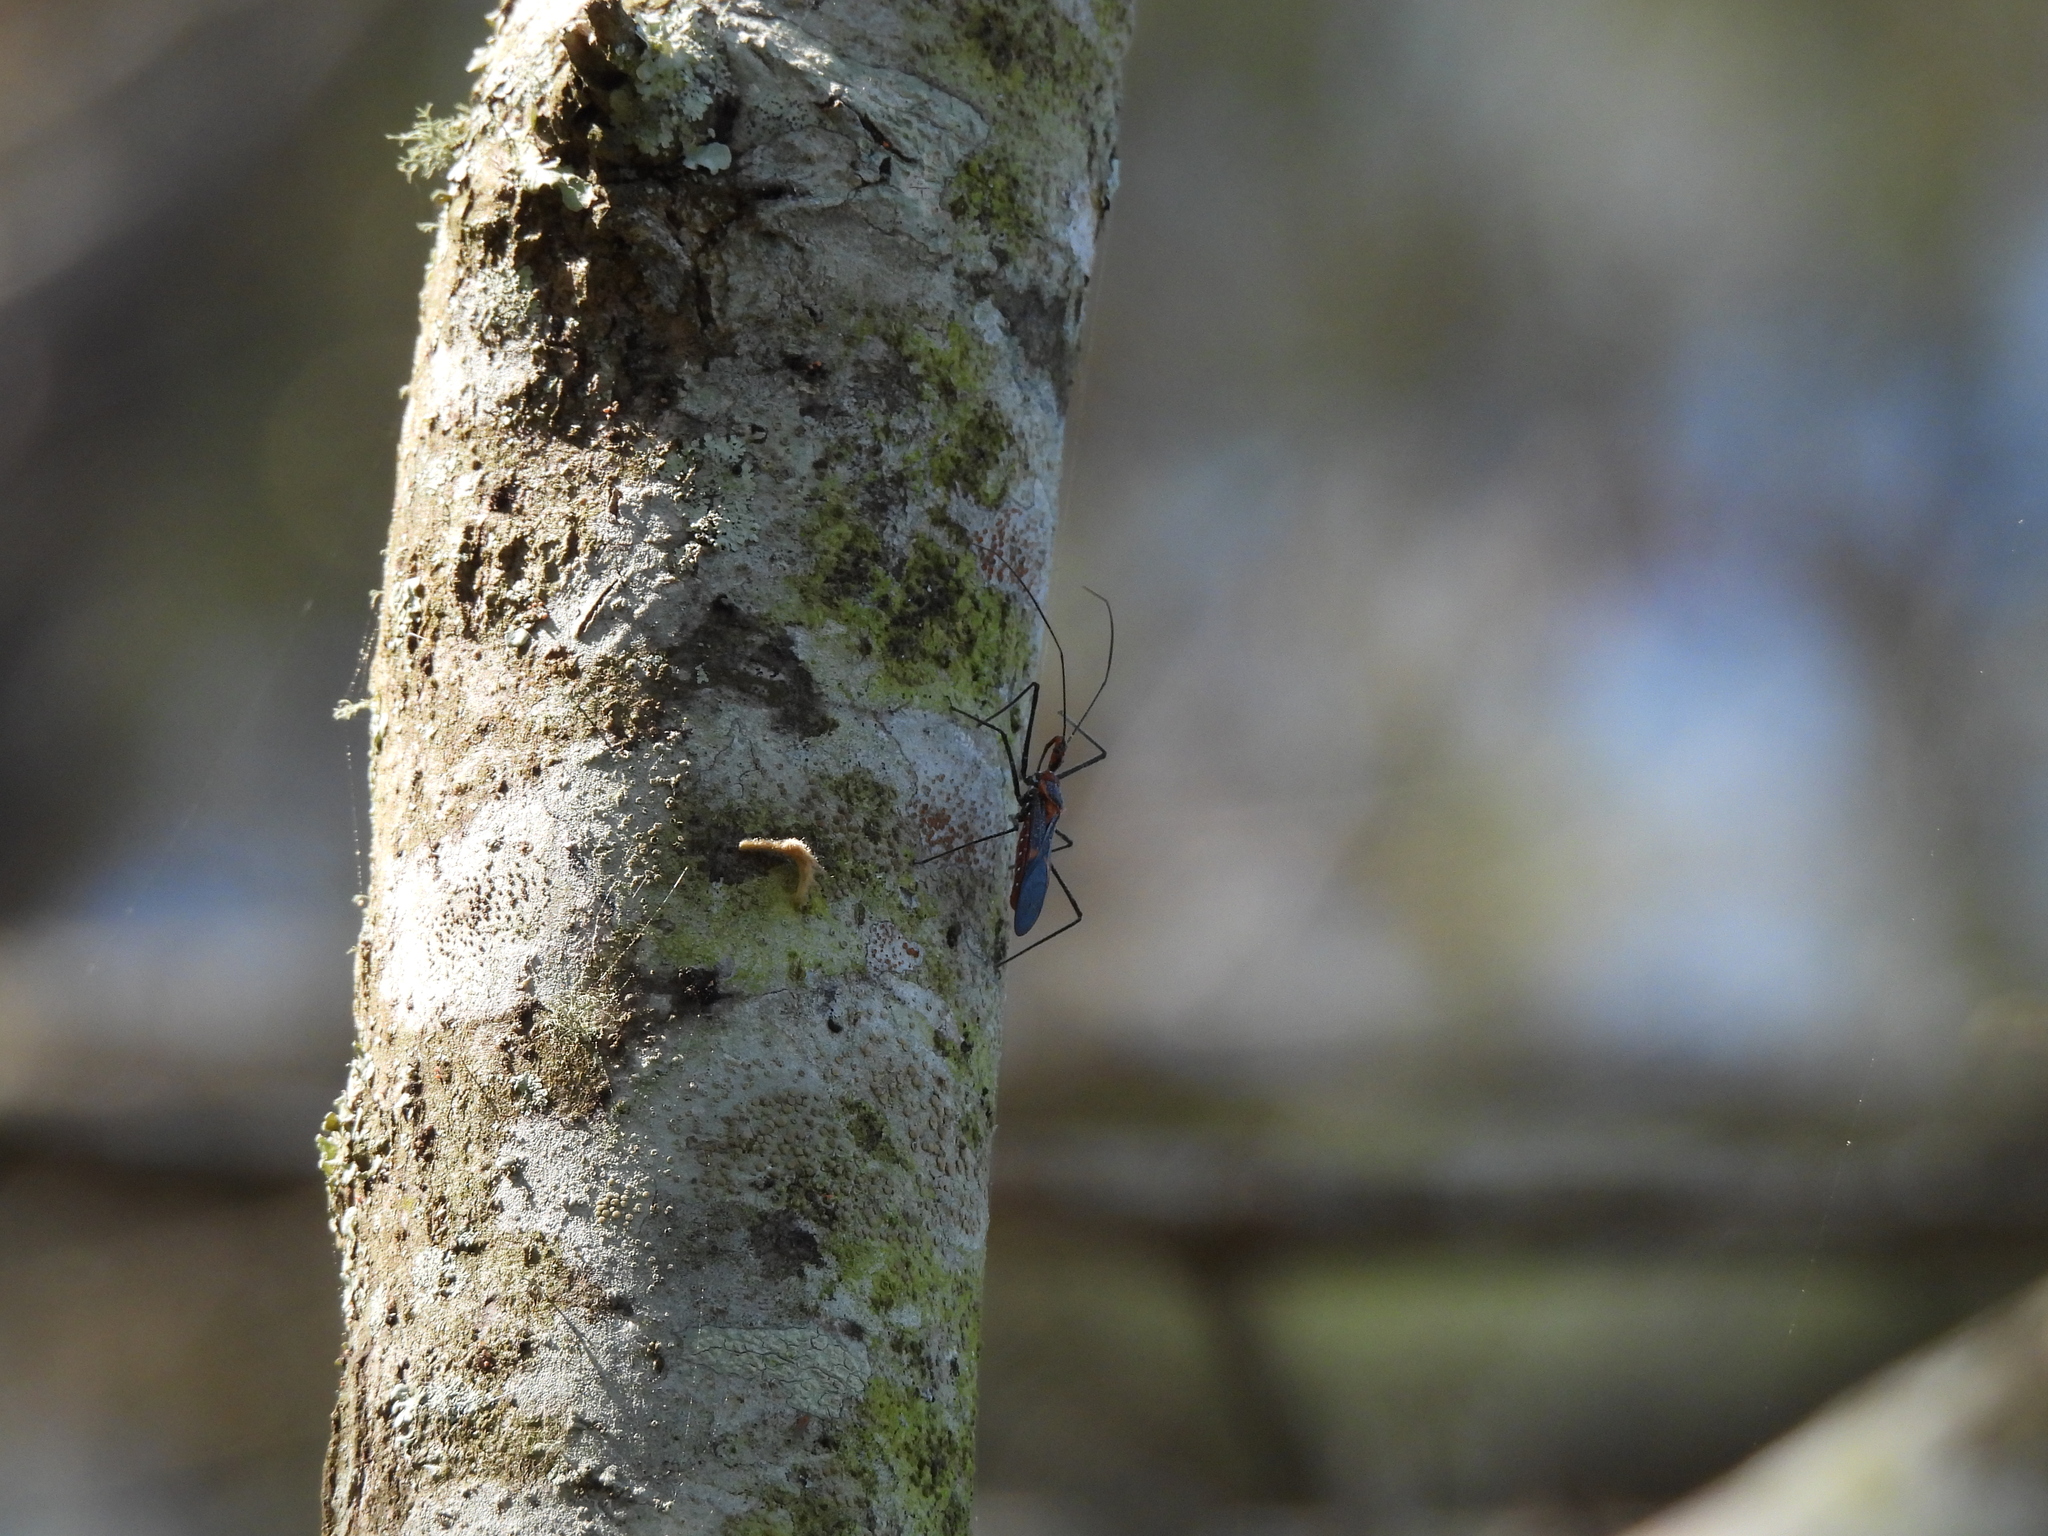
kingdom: Animalia
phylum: Arthropoda
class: Insecta
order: Hemiptera
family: Reduviidae
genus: Zelus
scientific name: Zelus longipes
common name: Milkweed assassin bug
